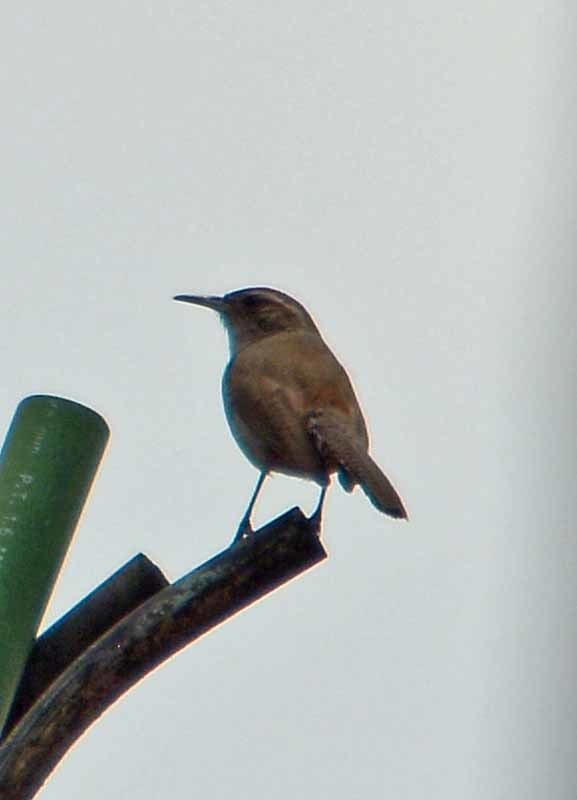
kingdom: Animalia
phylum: Chordata
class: Aves
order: Passeriformes
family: Troglodytidae
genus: Thryomanes
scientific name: Thryomanes bewickii
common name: Bewick's wren
